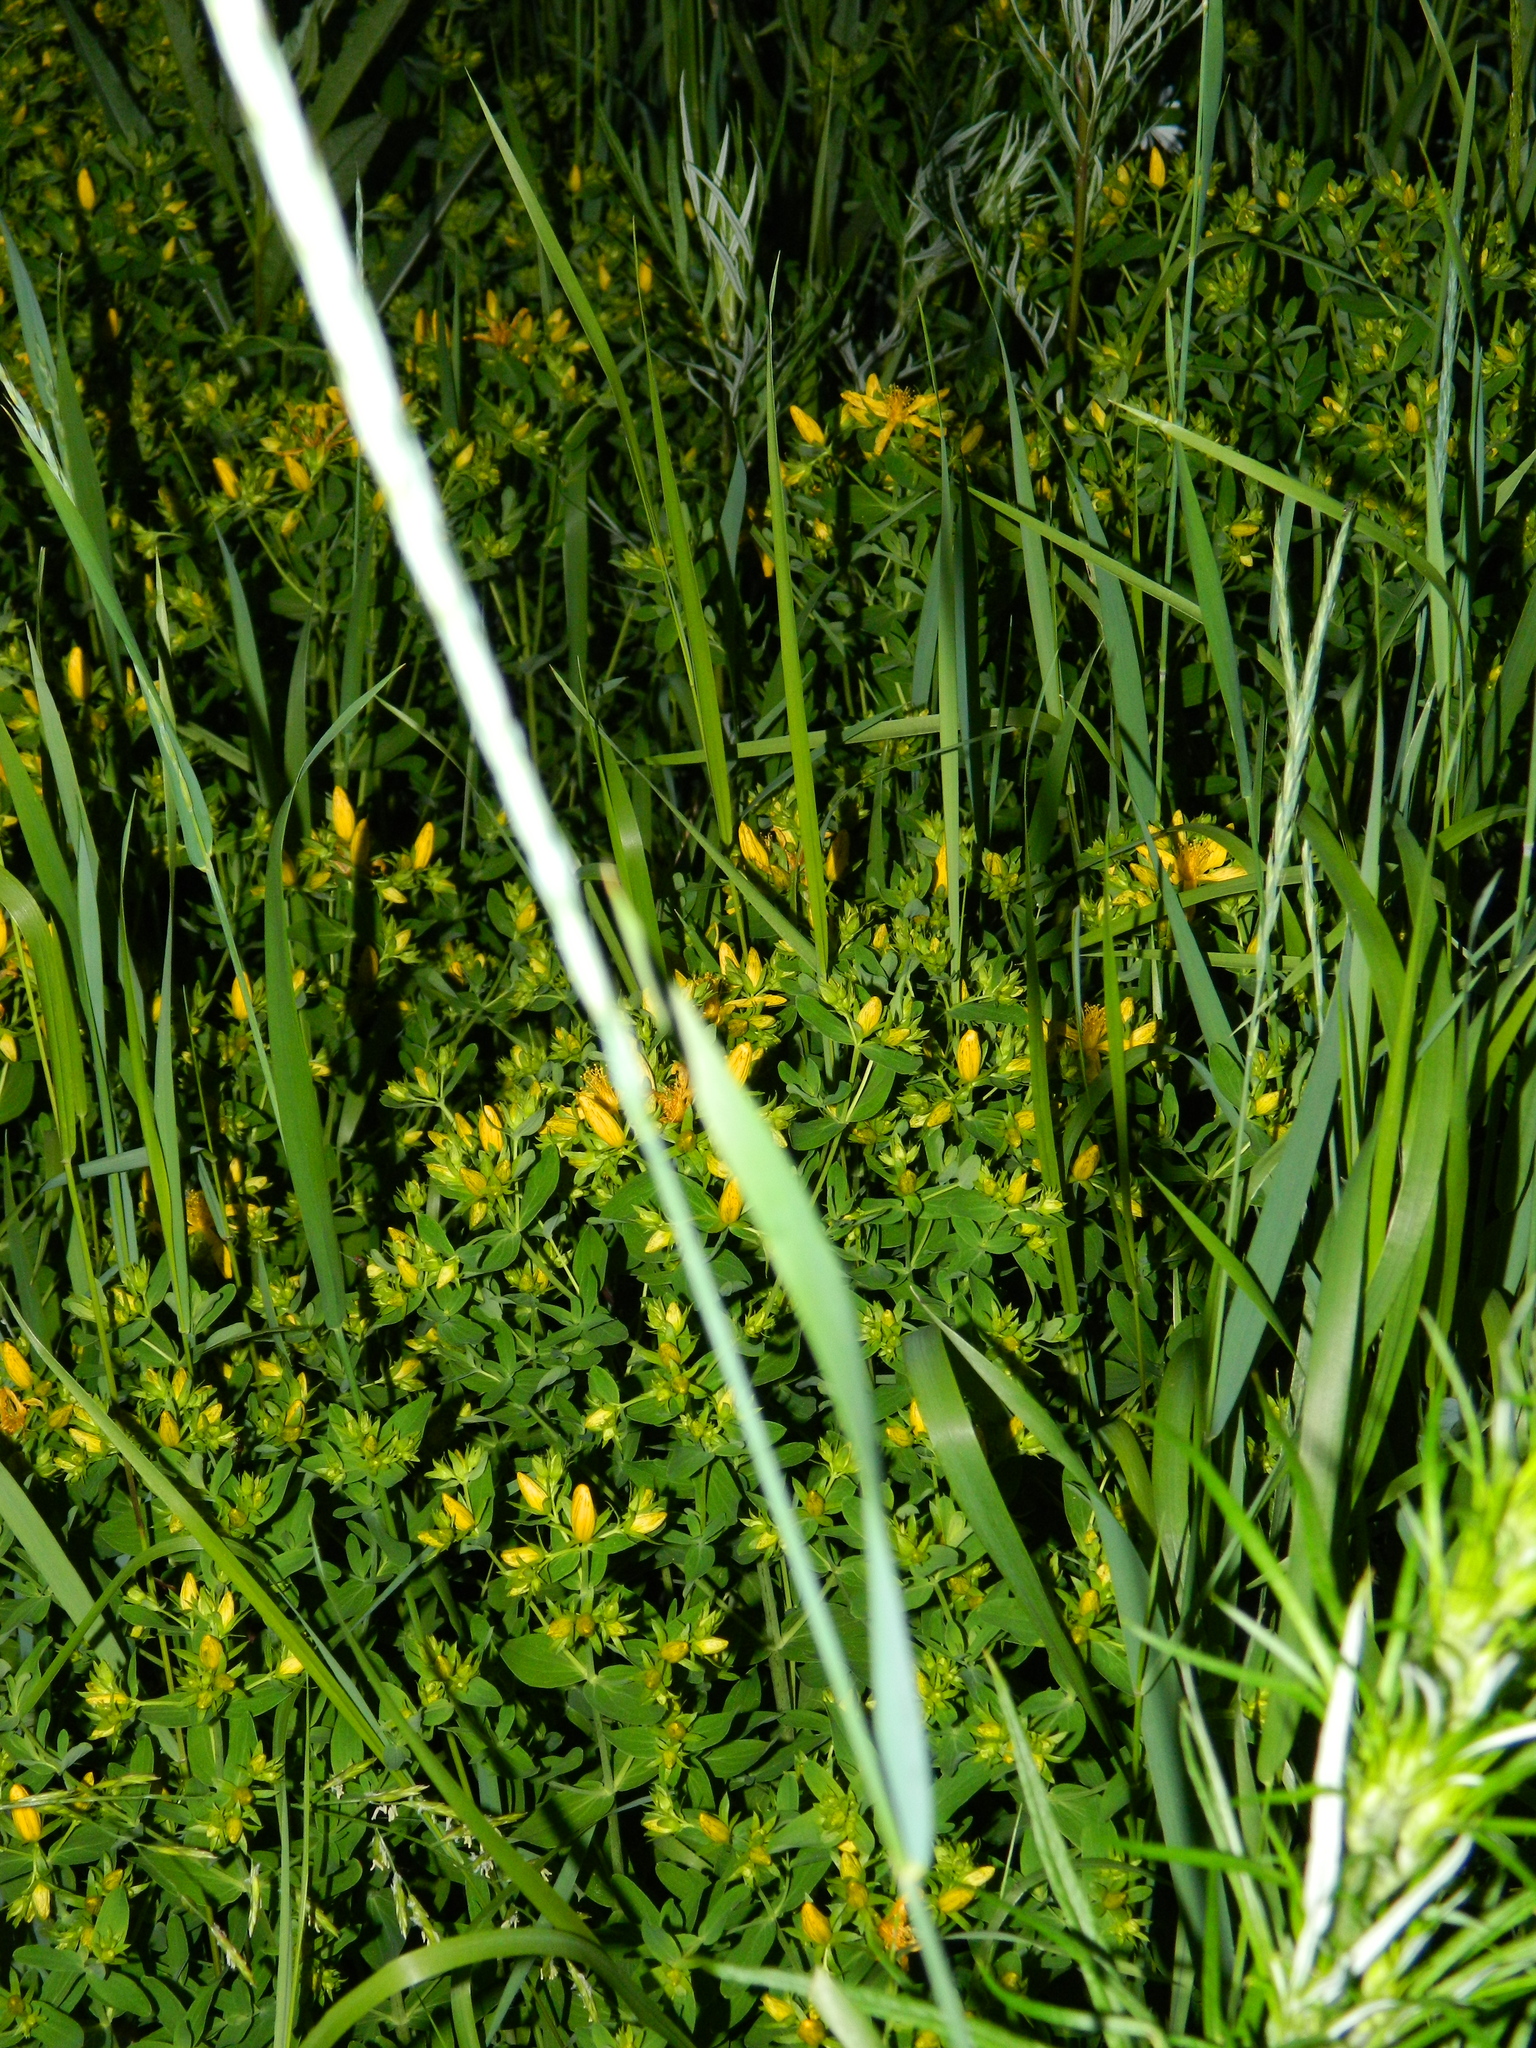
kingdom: Plantae
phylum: Tracheophyta
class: Magnoliopsida
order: Malpighiales
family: Hypericaceae
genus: Hypericum
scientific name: Hypericum perforatum
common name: Common st. johnswort
